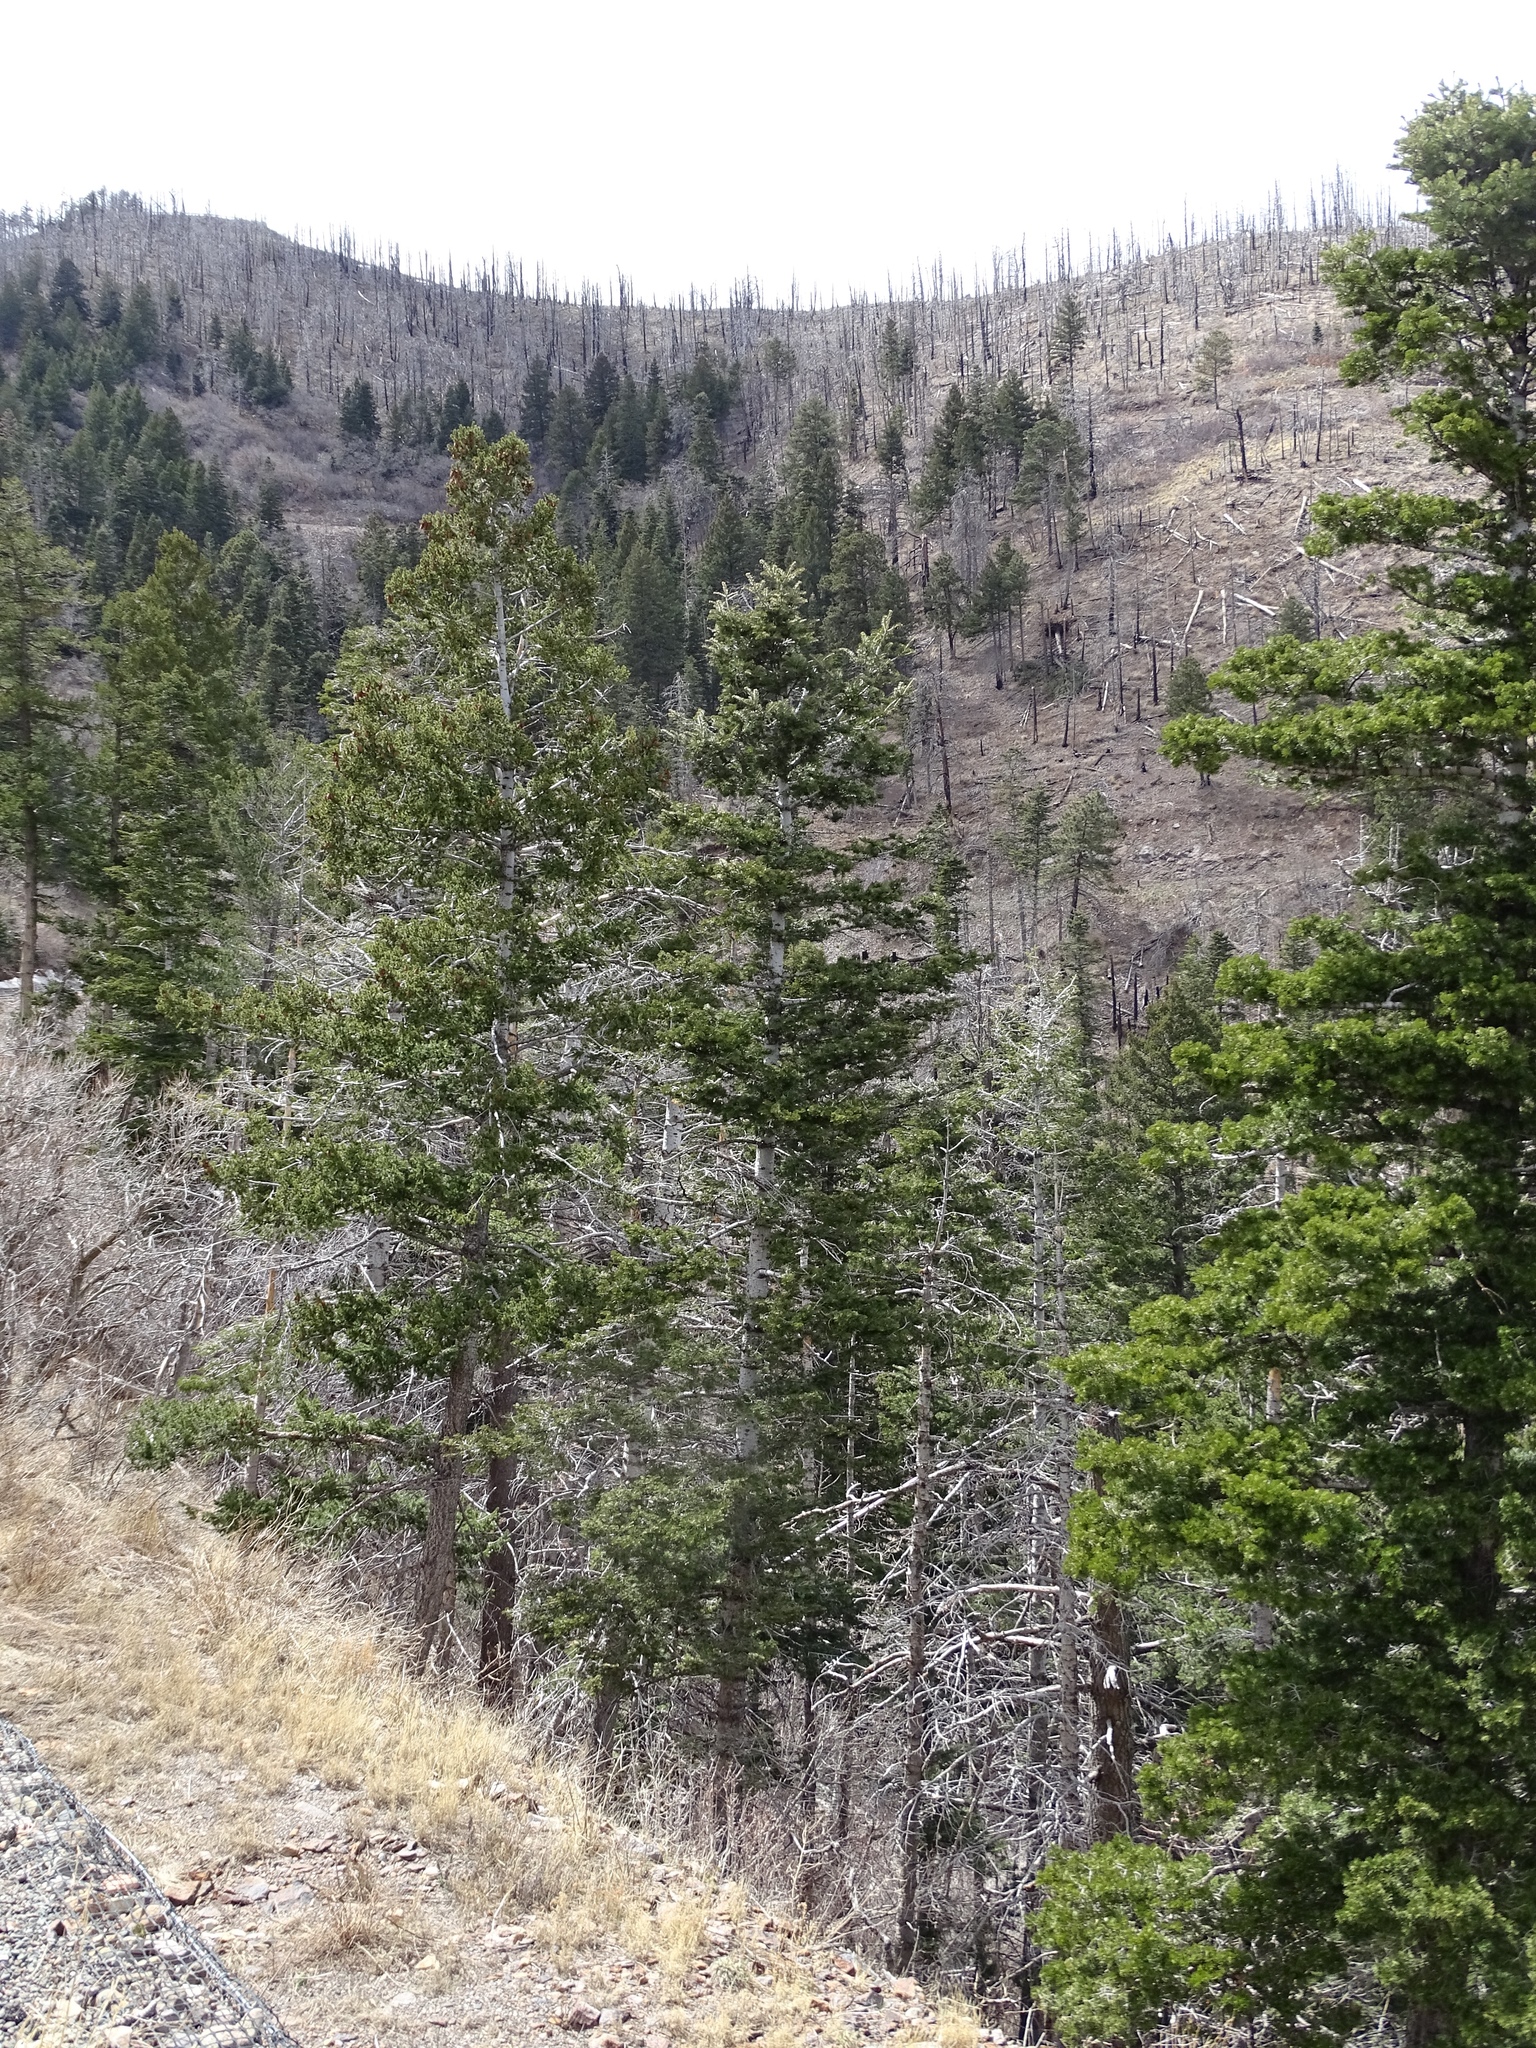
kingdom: Plantae
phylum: Tracheophyta
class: Pinopsida
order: Pinales
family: Pinaceae
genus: Abies
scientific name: Abies concolor
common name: Colorado fir
